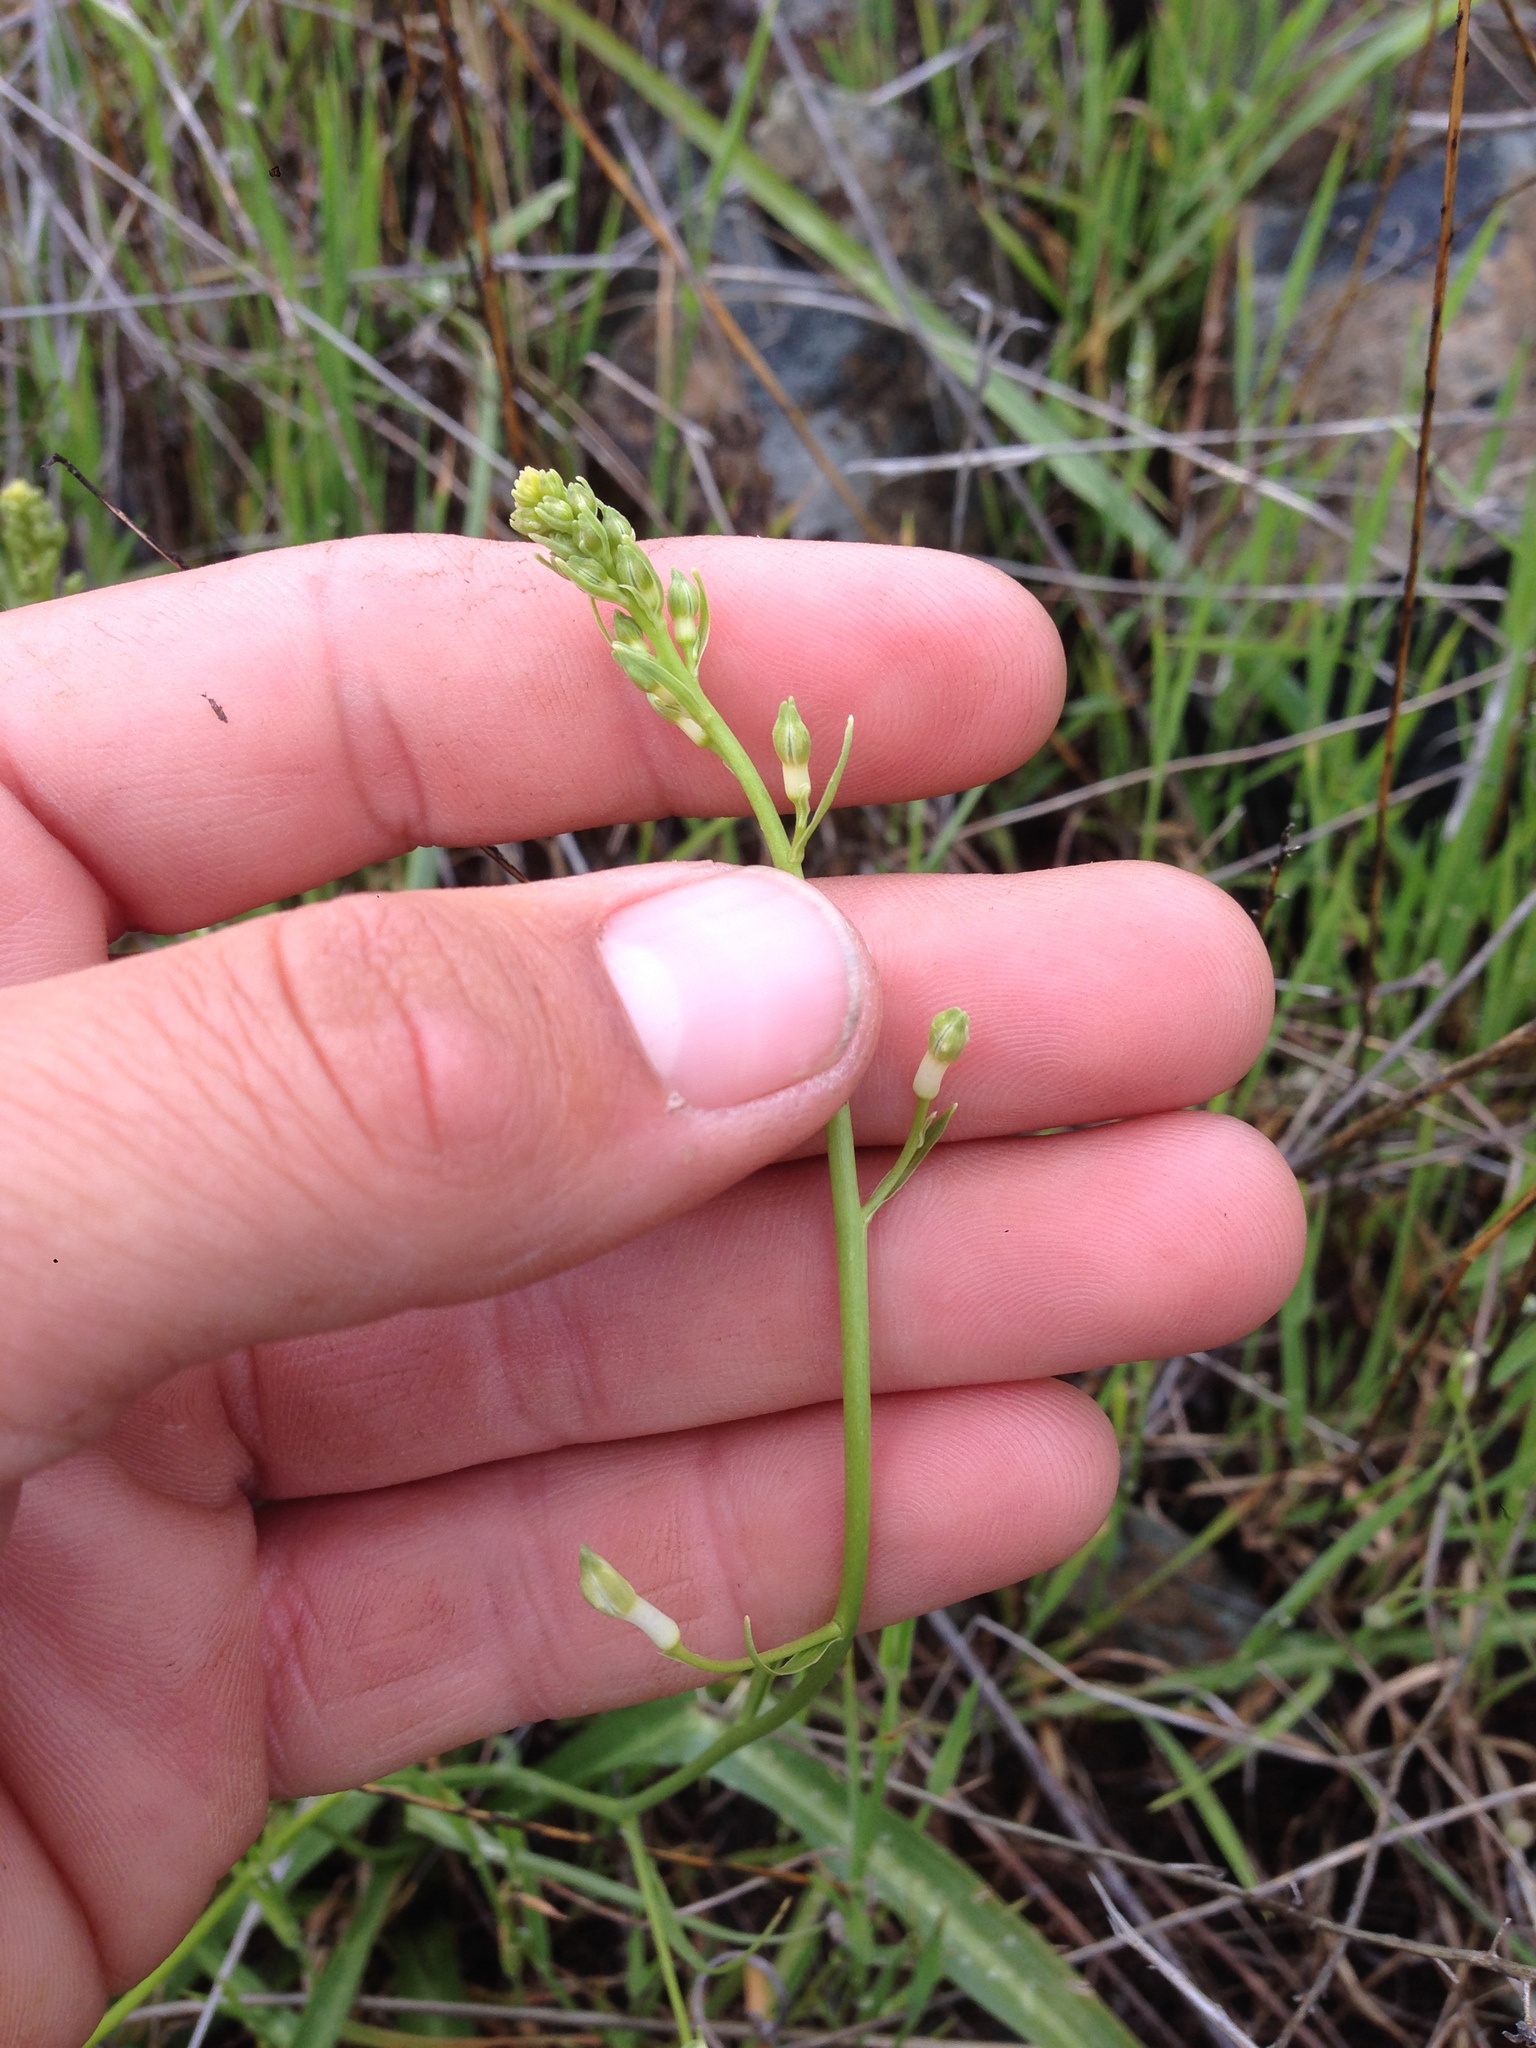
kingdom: Plantae
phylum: Tracheophyta
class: Liliopsida
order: Asparagales
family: Tecophilaeaceae
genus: Odontostomum
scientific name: Odontostomum hartwegii
